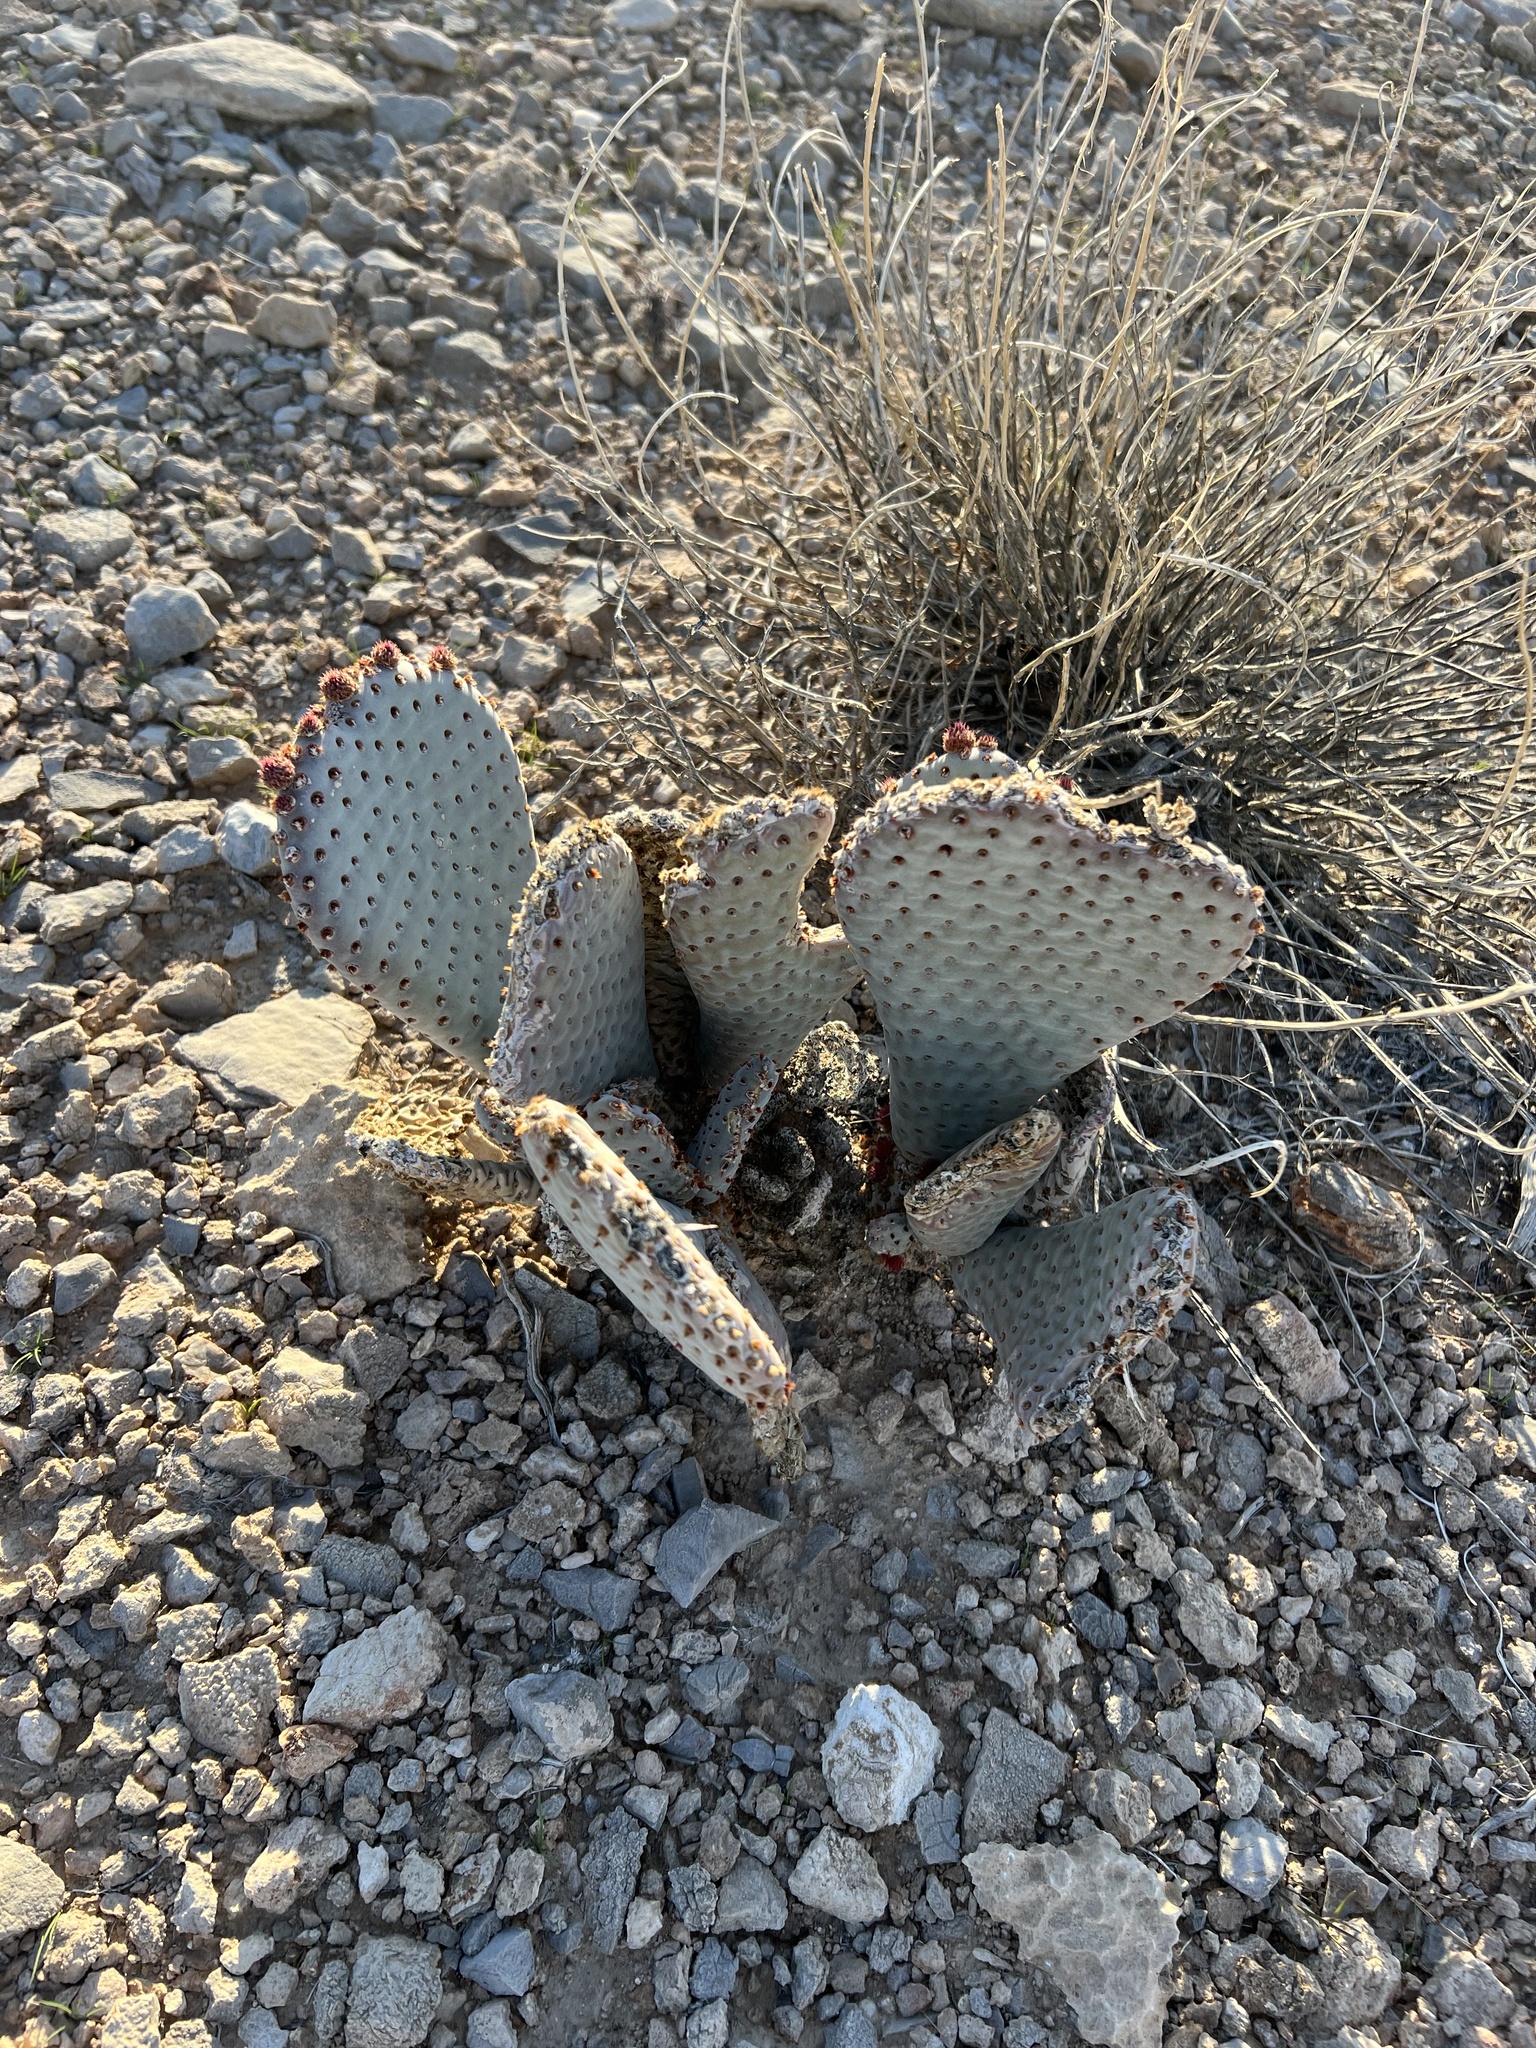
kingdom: Plantae
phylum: Tracheophyta
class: Magnoliopsida
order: Caryophyllales
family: Cactaceae
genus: Opuntia
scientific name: Opuntia basilaris
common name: Beavertail prickly-pear
